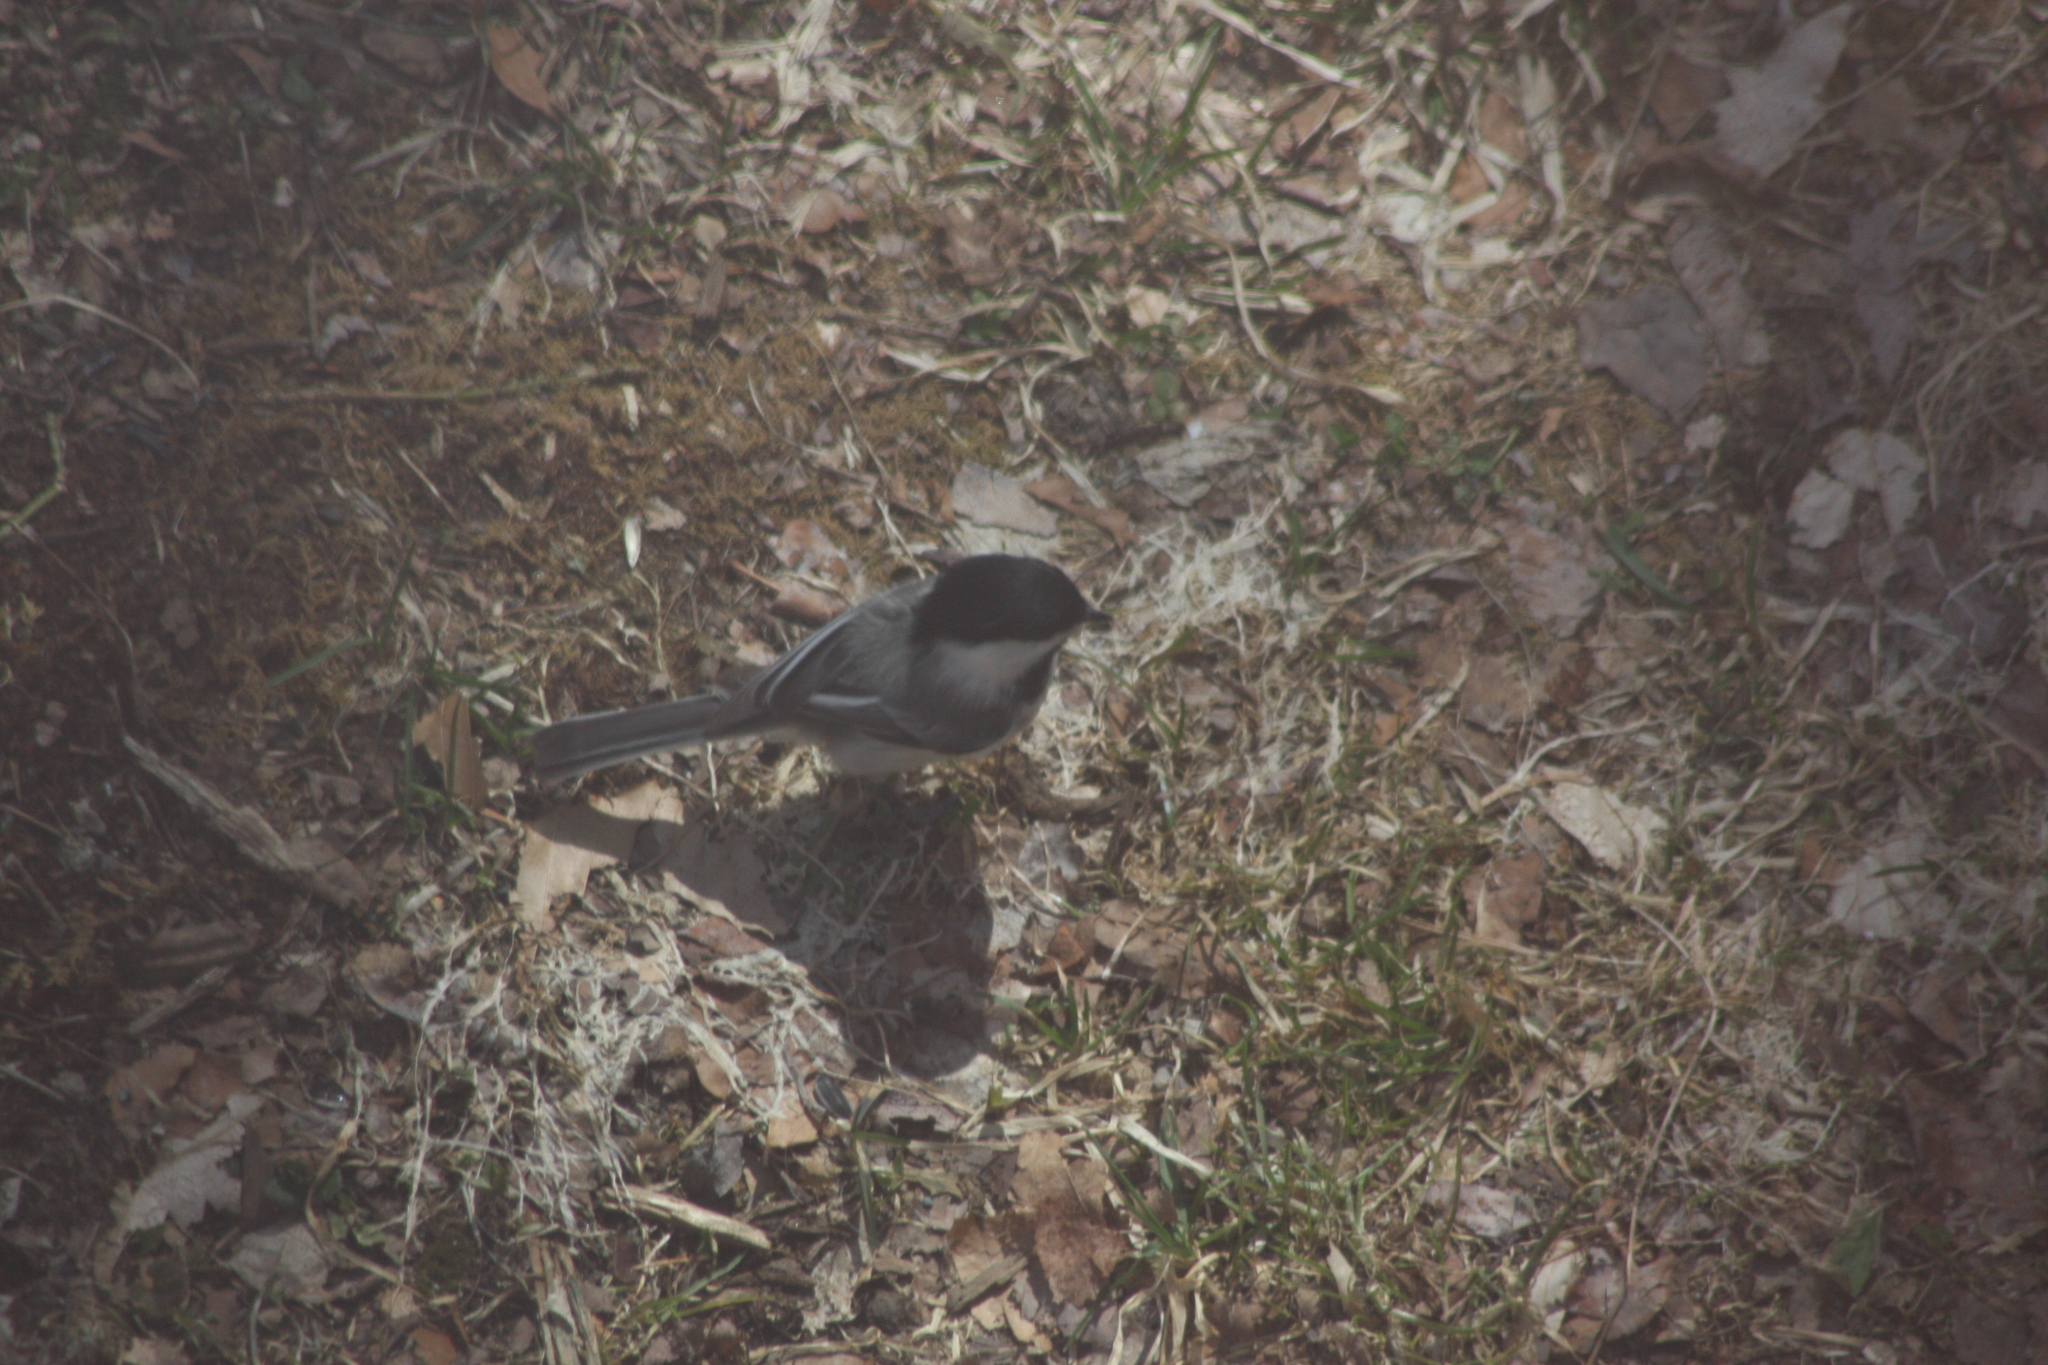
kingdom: Animalia
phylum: Chordata
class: Aves
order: Passeriformes
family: Paridae
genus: Poecile
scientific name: Poecile atricapillus
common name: Black-capped chickadee
